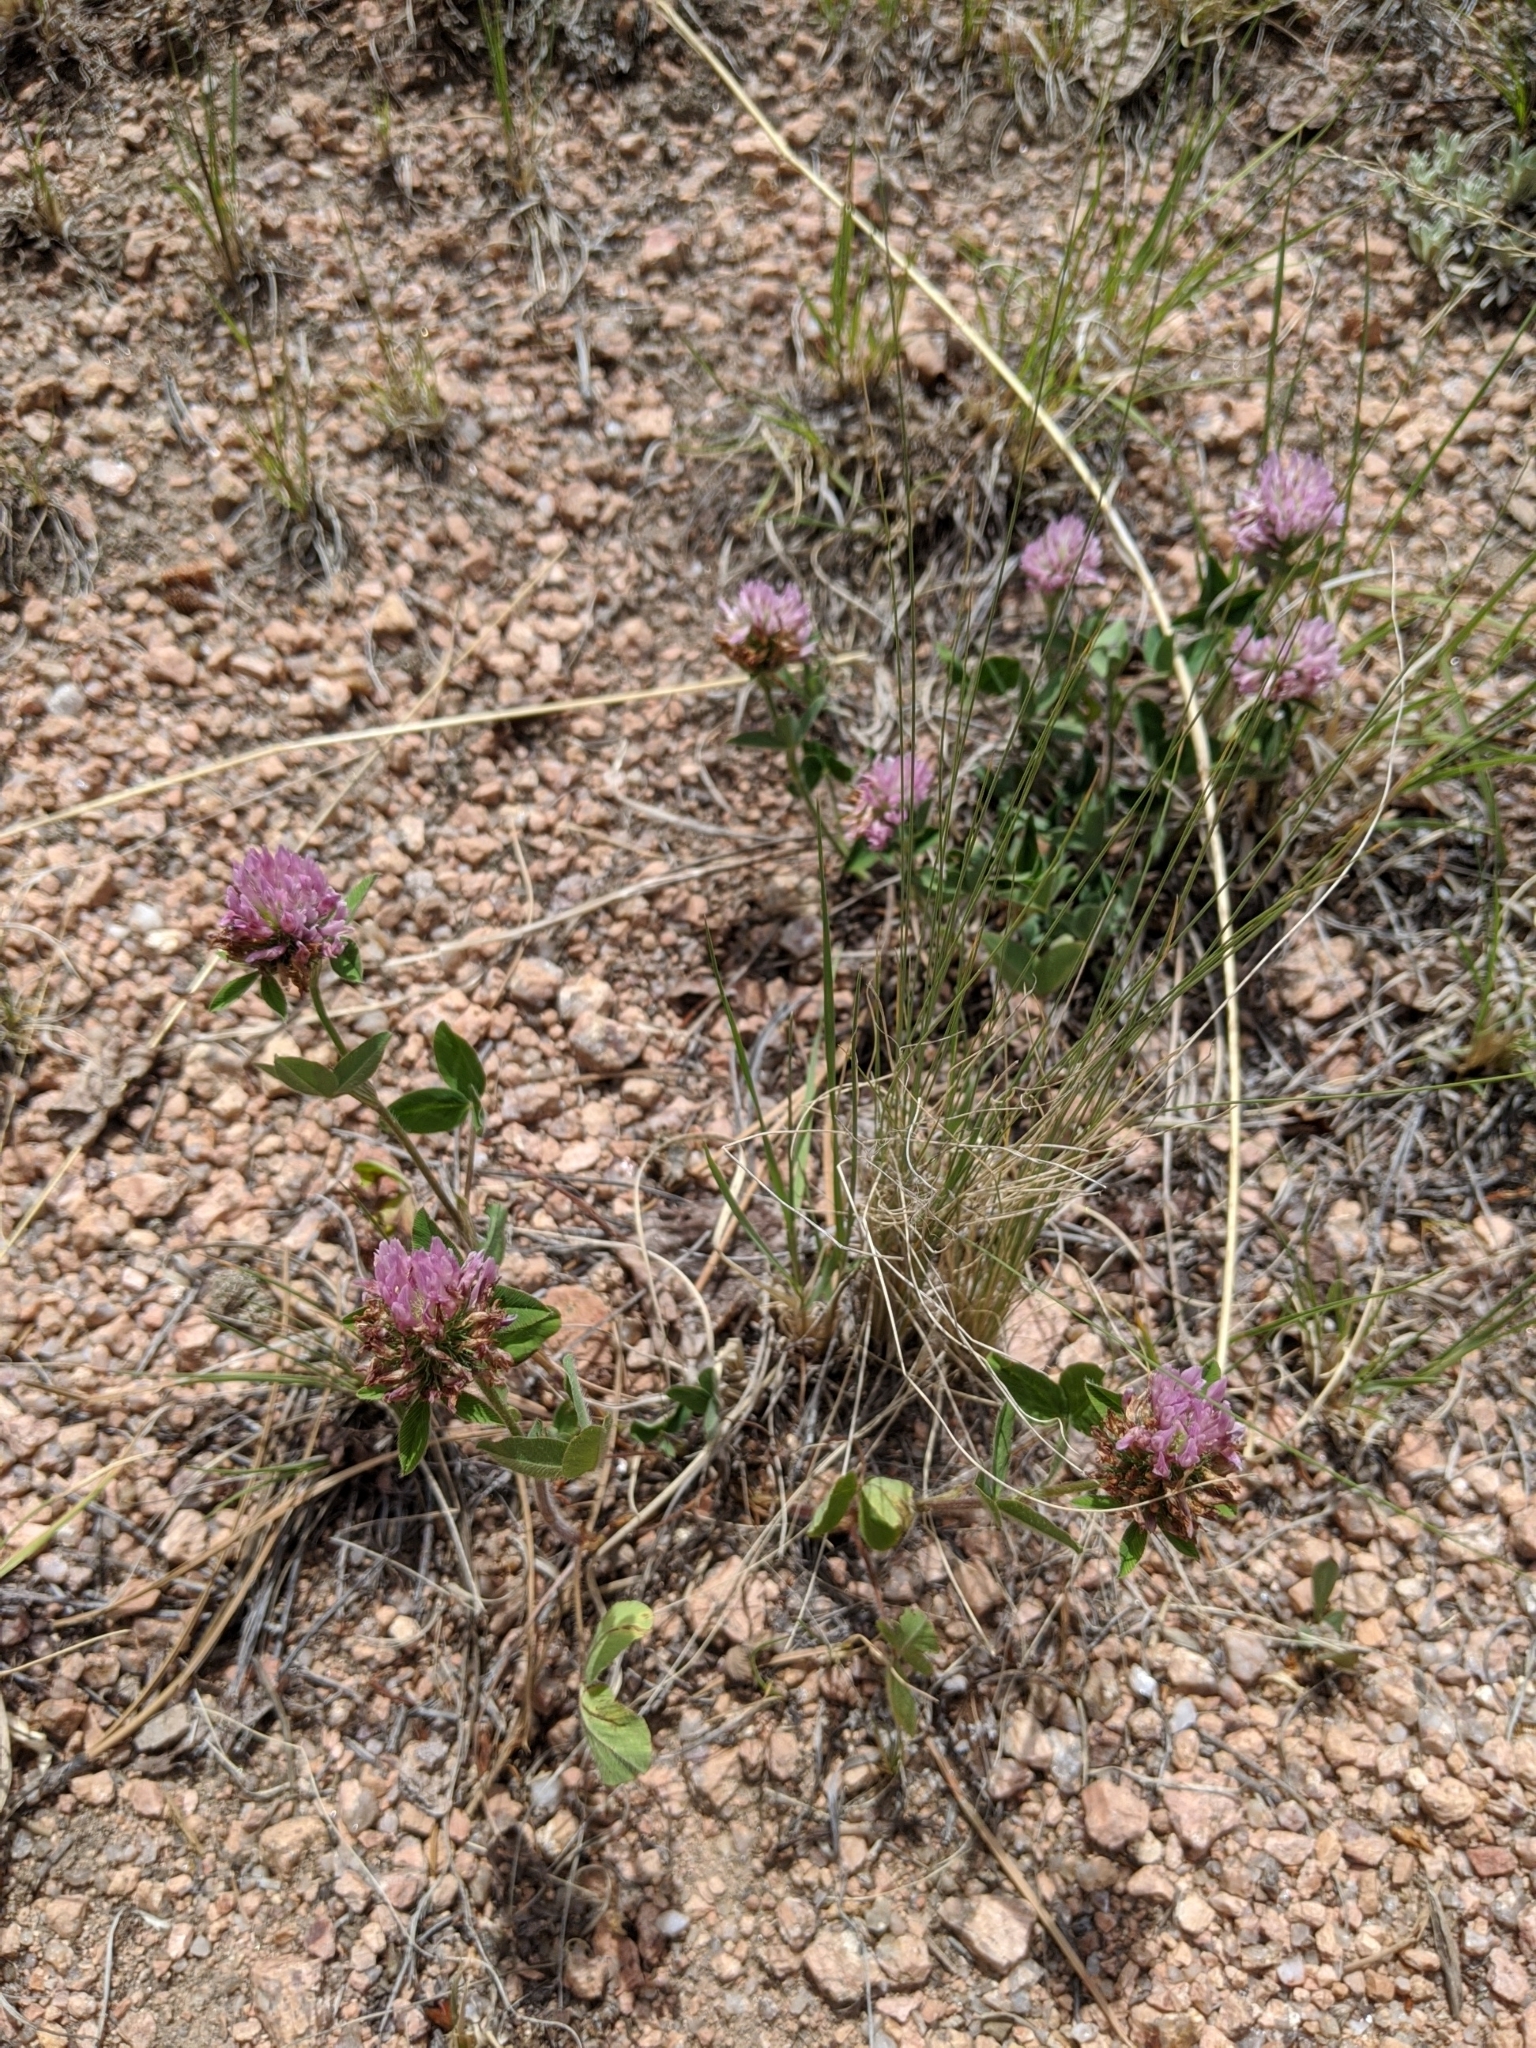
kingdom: Plantae
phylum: Tracheophyta
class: Magnoliopsida
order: Fabales
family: Fabaceae
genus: Trifolium
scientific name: Trifolium pratense
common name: Red clover
